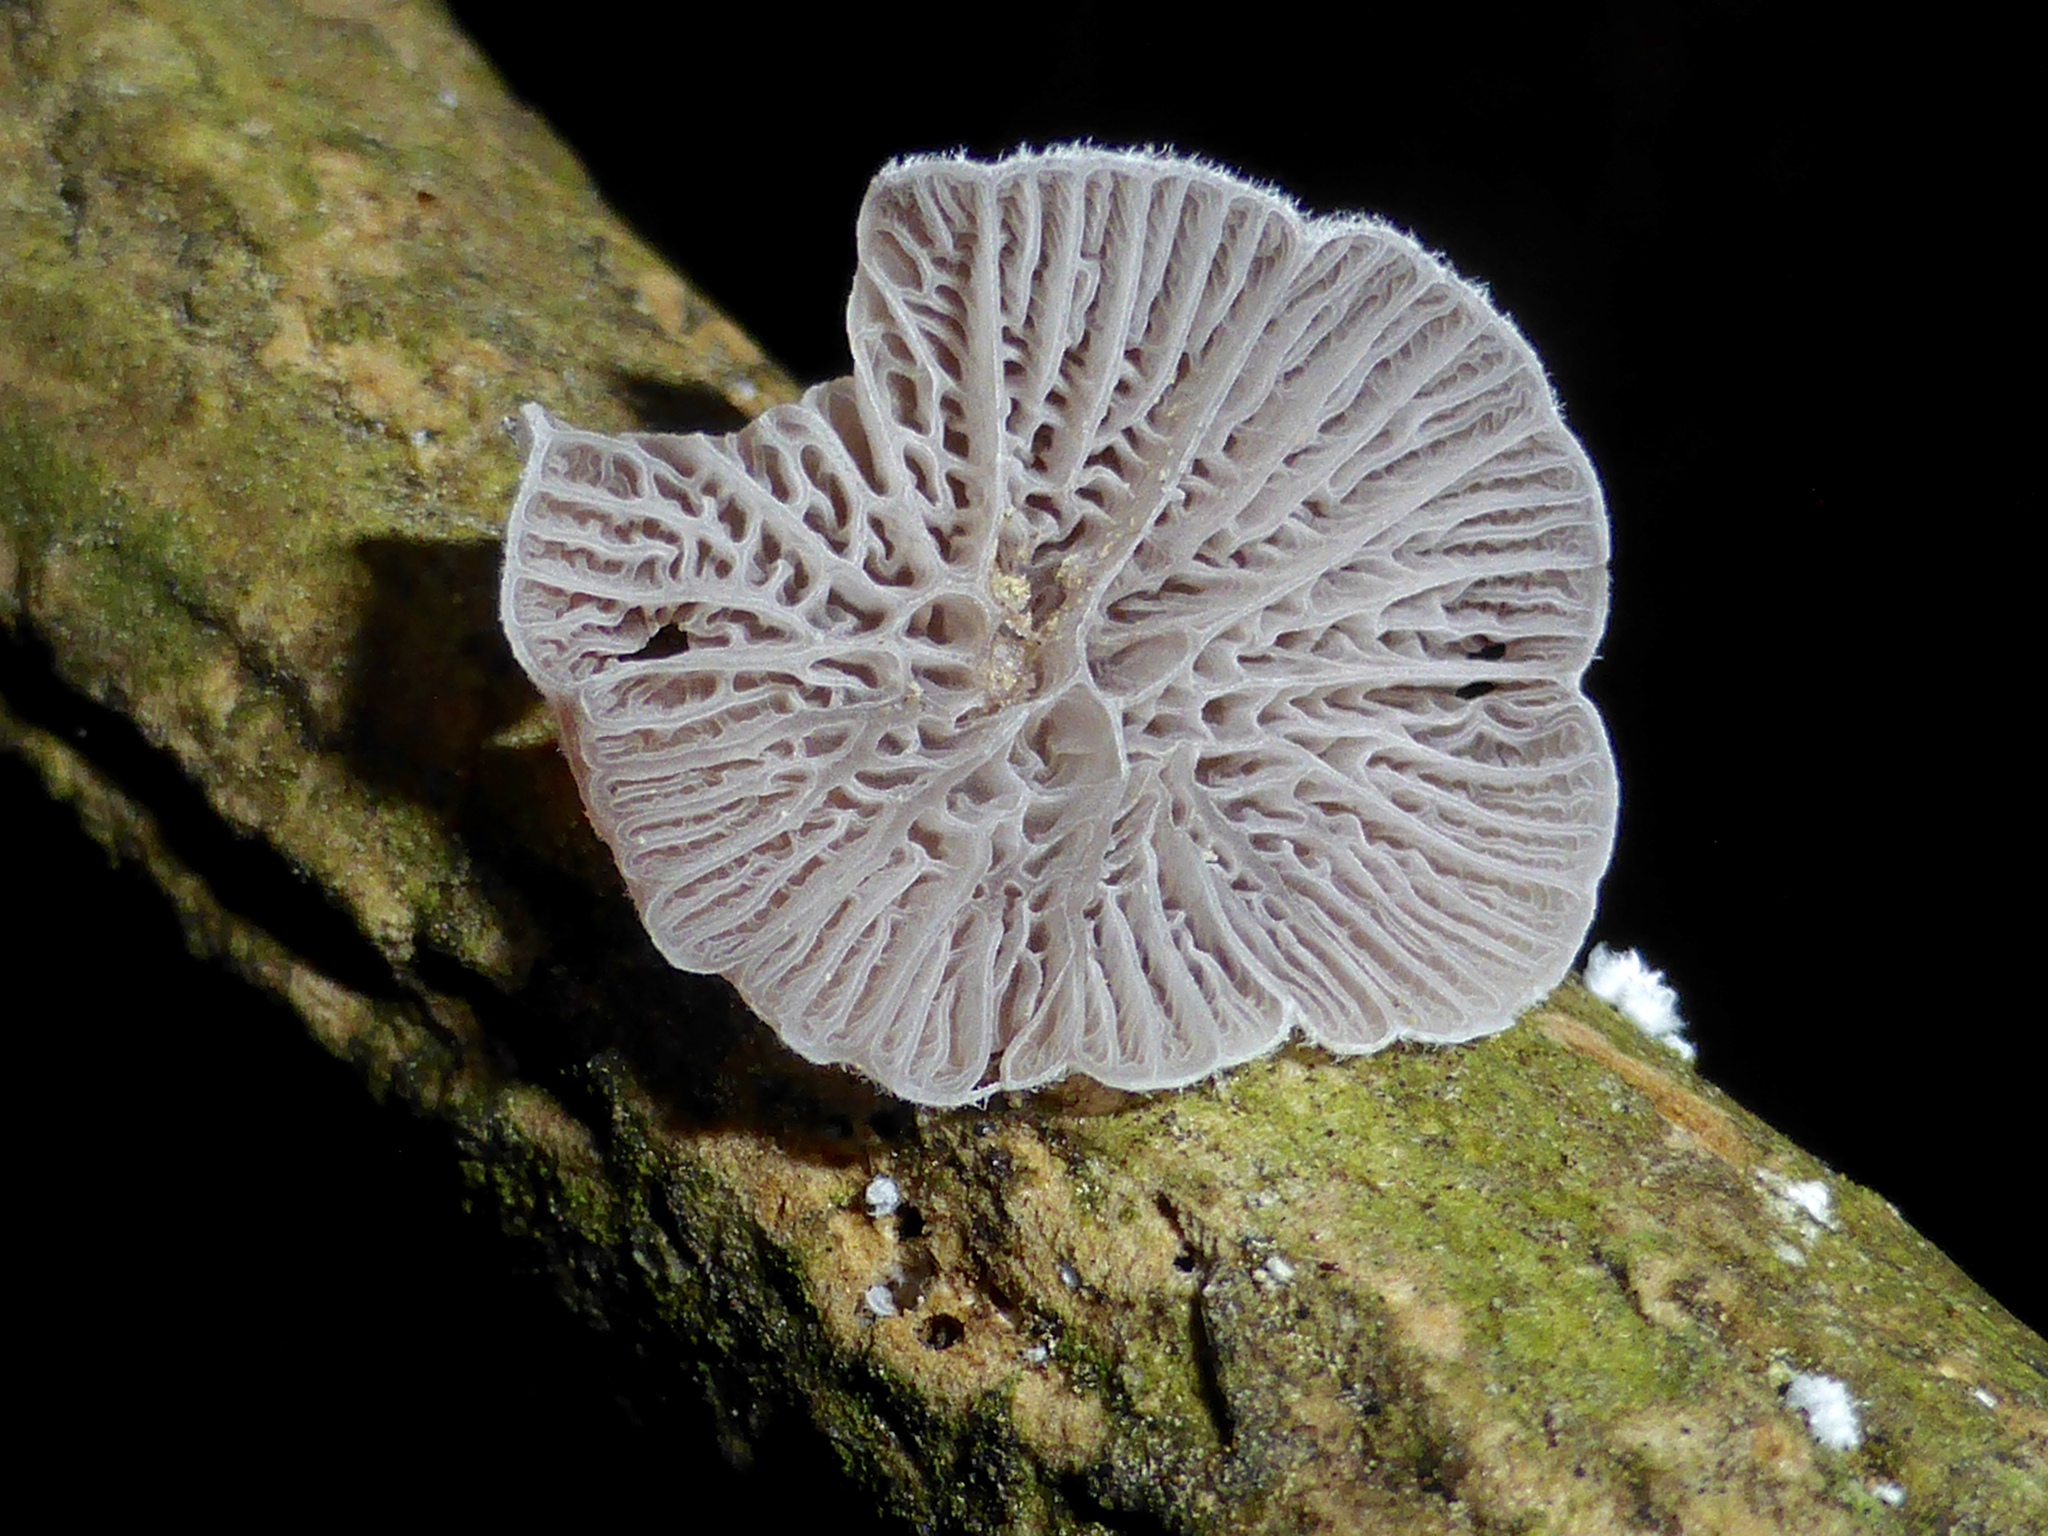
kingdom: Fungi
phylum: Basidiomycota
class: Agaricomycetes
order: Agaricales
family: Pleurotaceae
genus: Resupinatus
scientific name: Resupinatus vinosolividus
